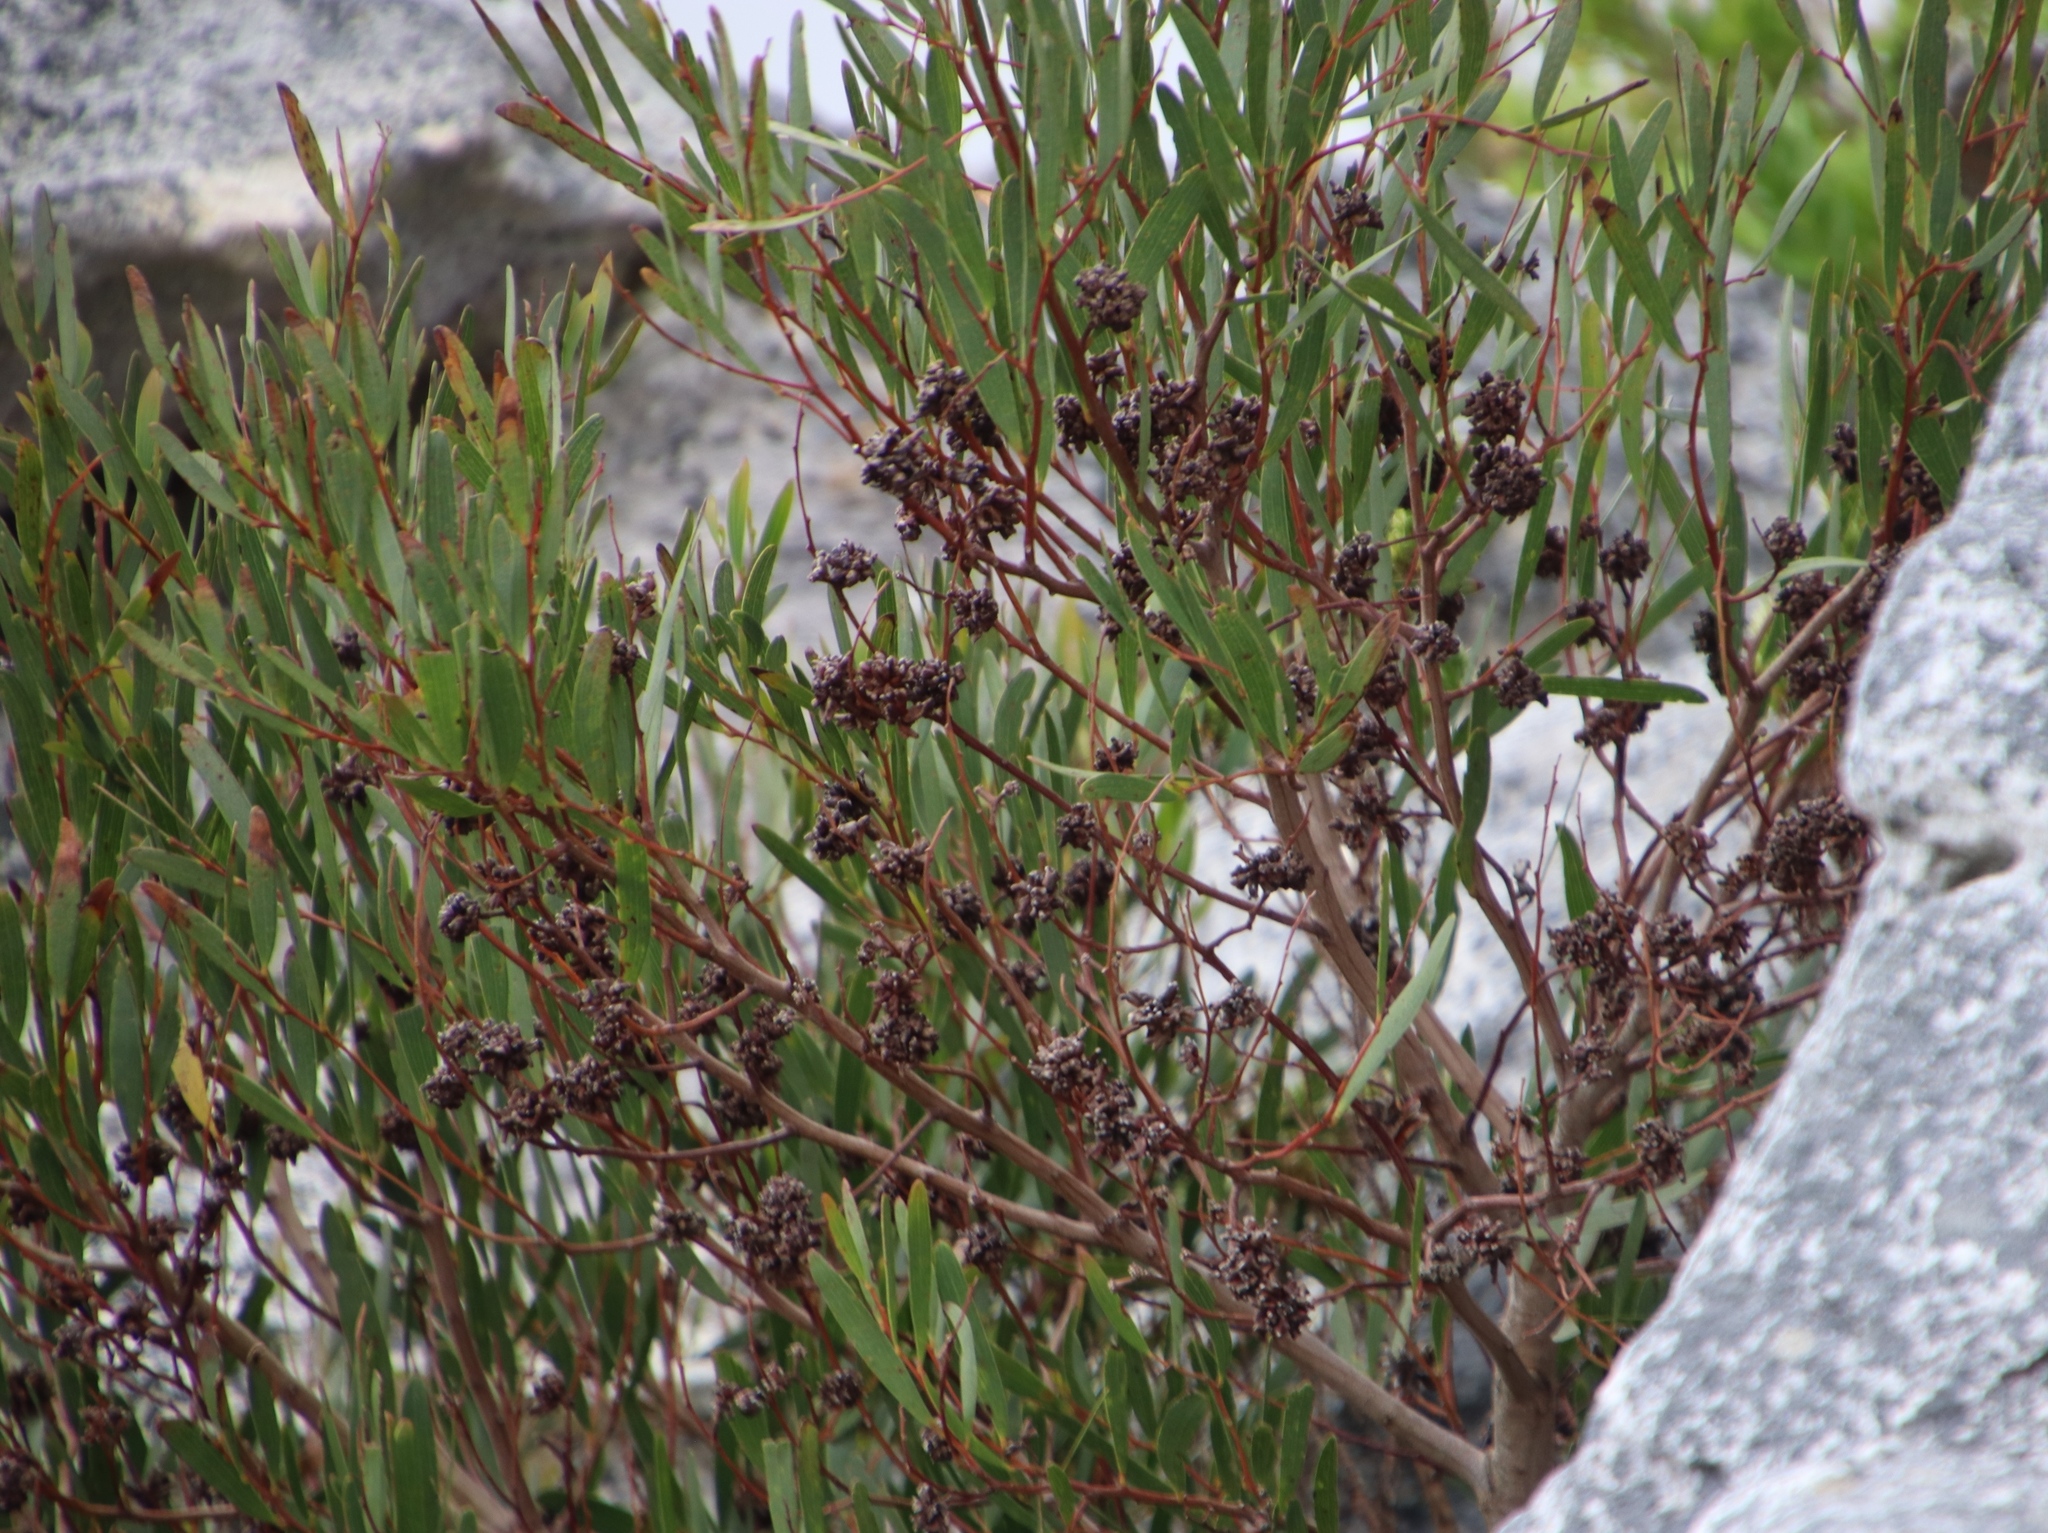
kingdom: Animalia
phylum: Arthropoda
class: Insecta
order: Diptera
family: Cecidomyiidae
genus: Dasineura
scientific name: Dasineura dielsi
